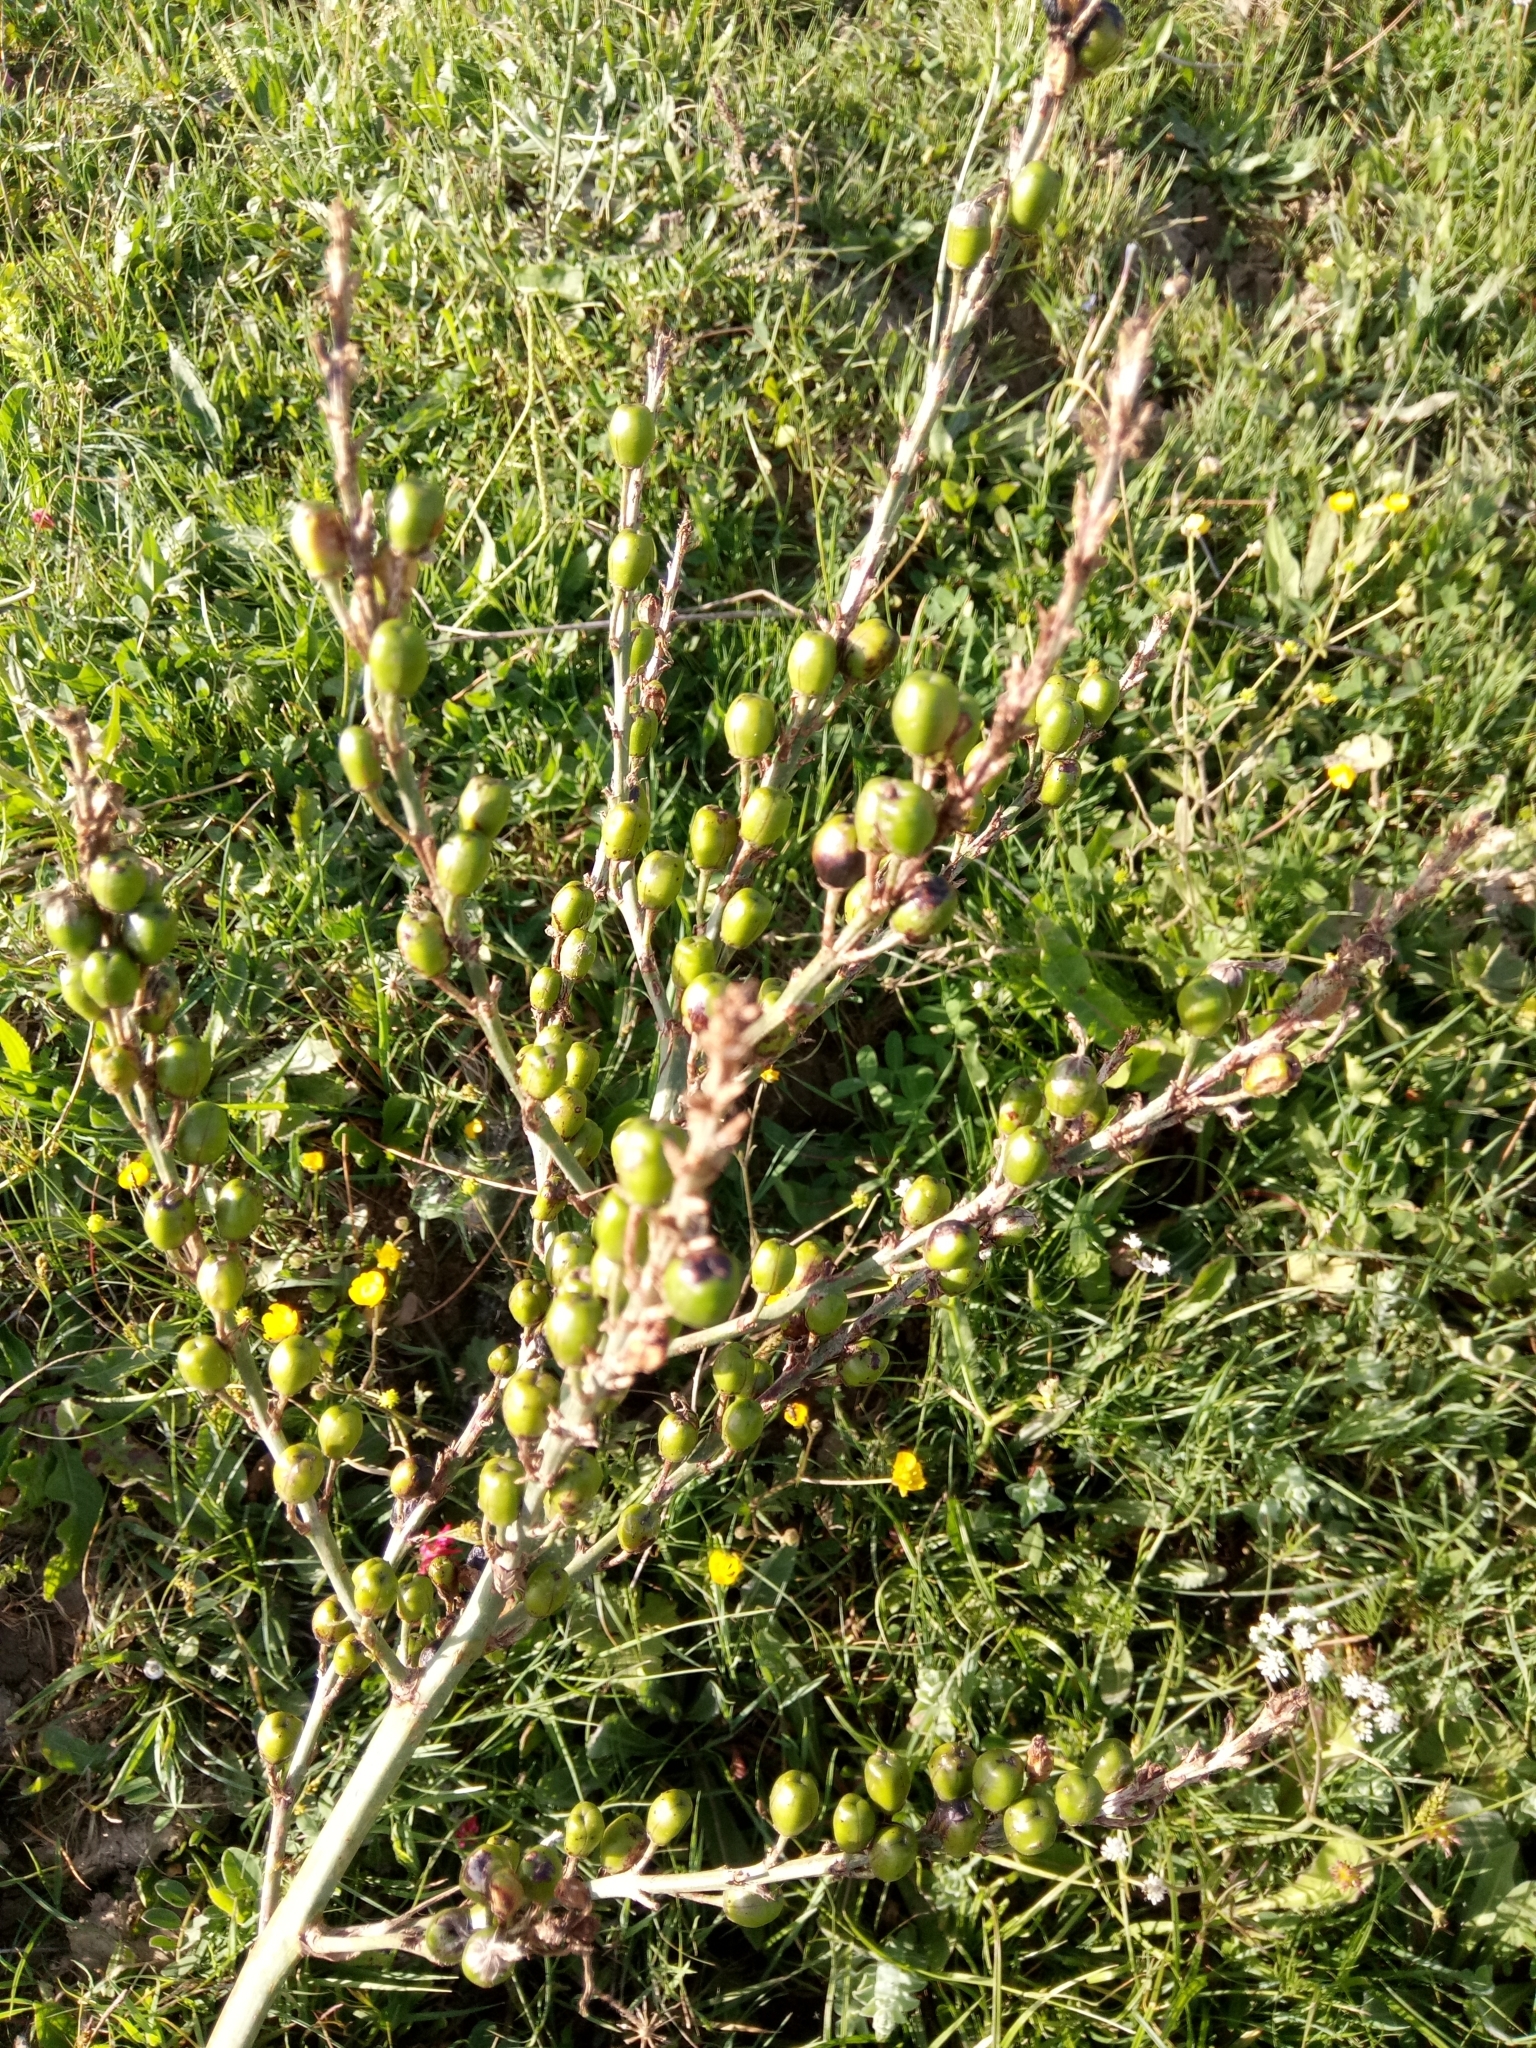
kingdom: Plantae
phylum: Tracheophyta
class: Liliopsida
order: Asparagales
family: Asphodelaceae
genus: Asphodelus
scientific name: Asphodelus ramosus
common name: Silverrod
